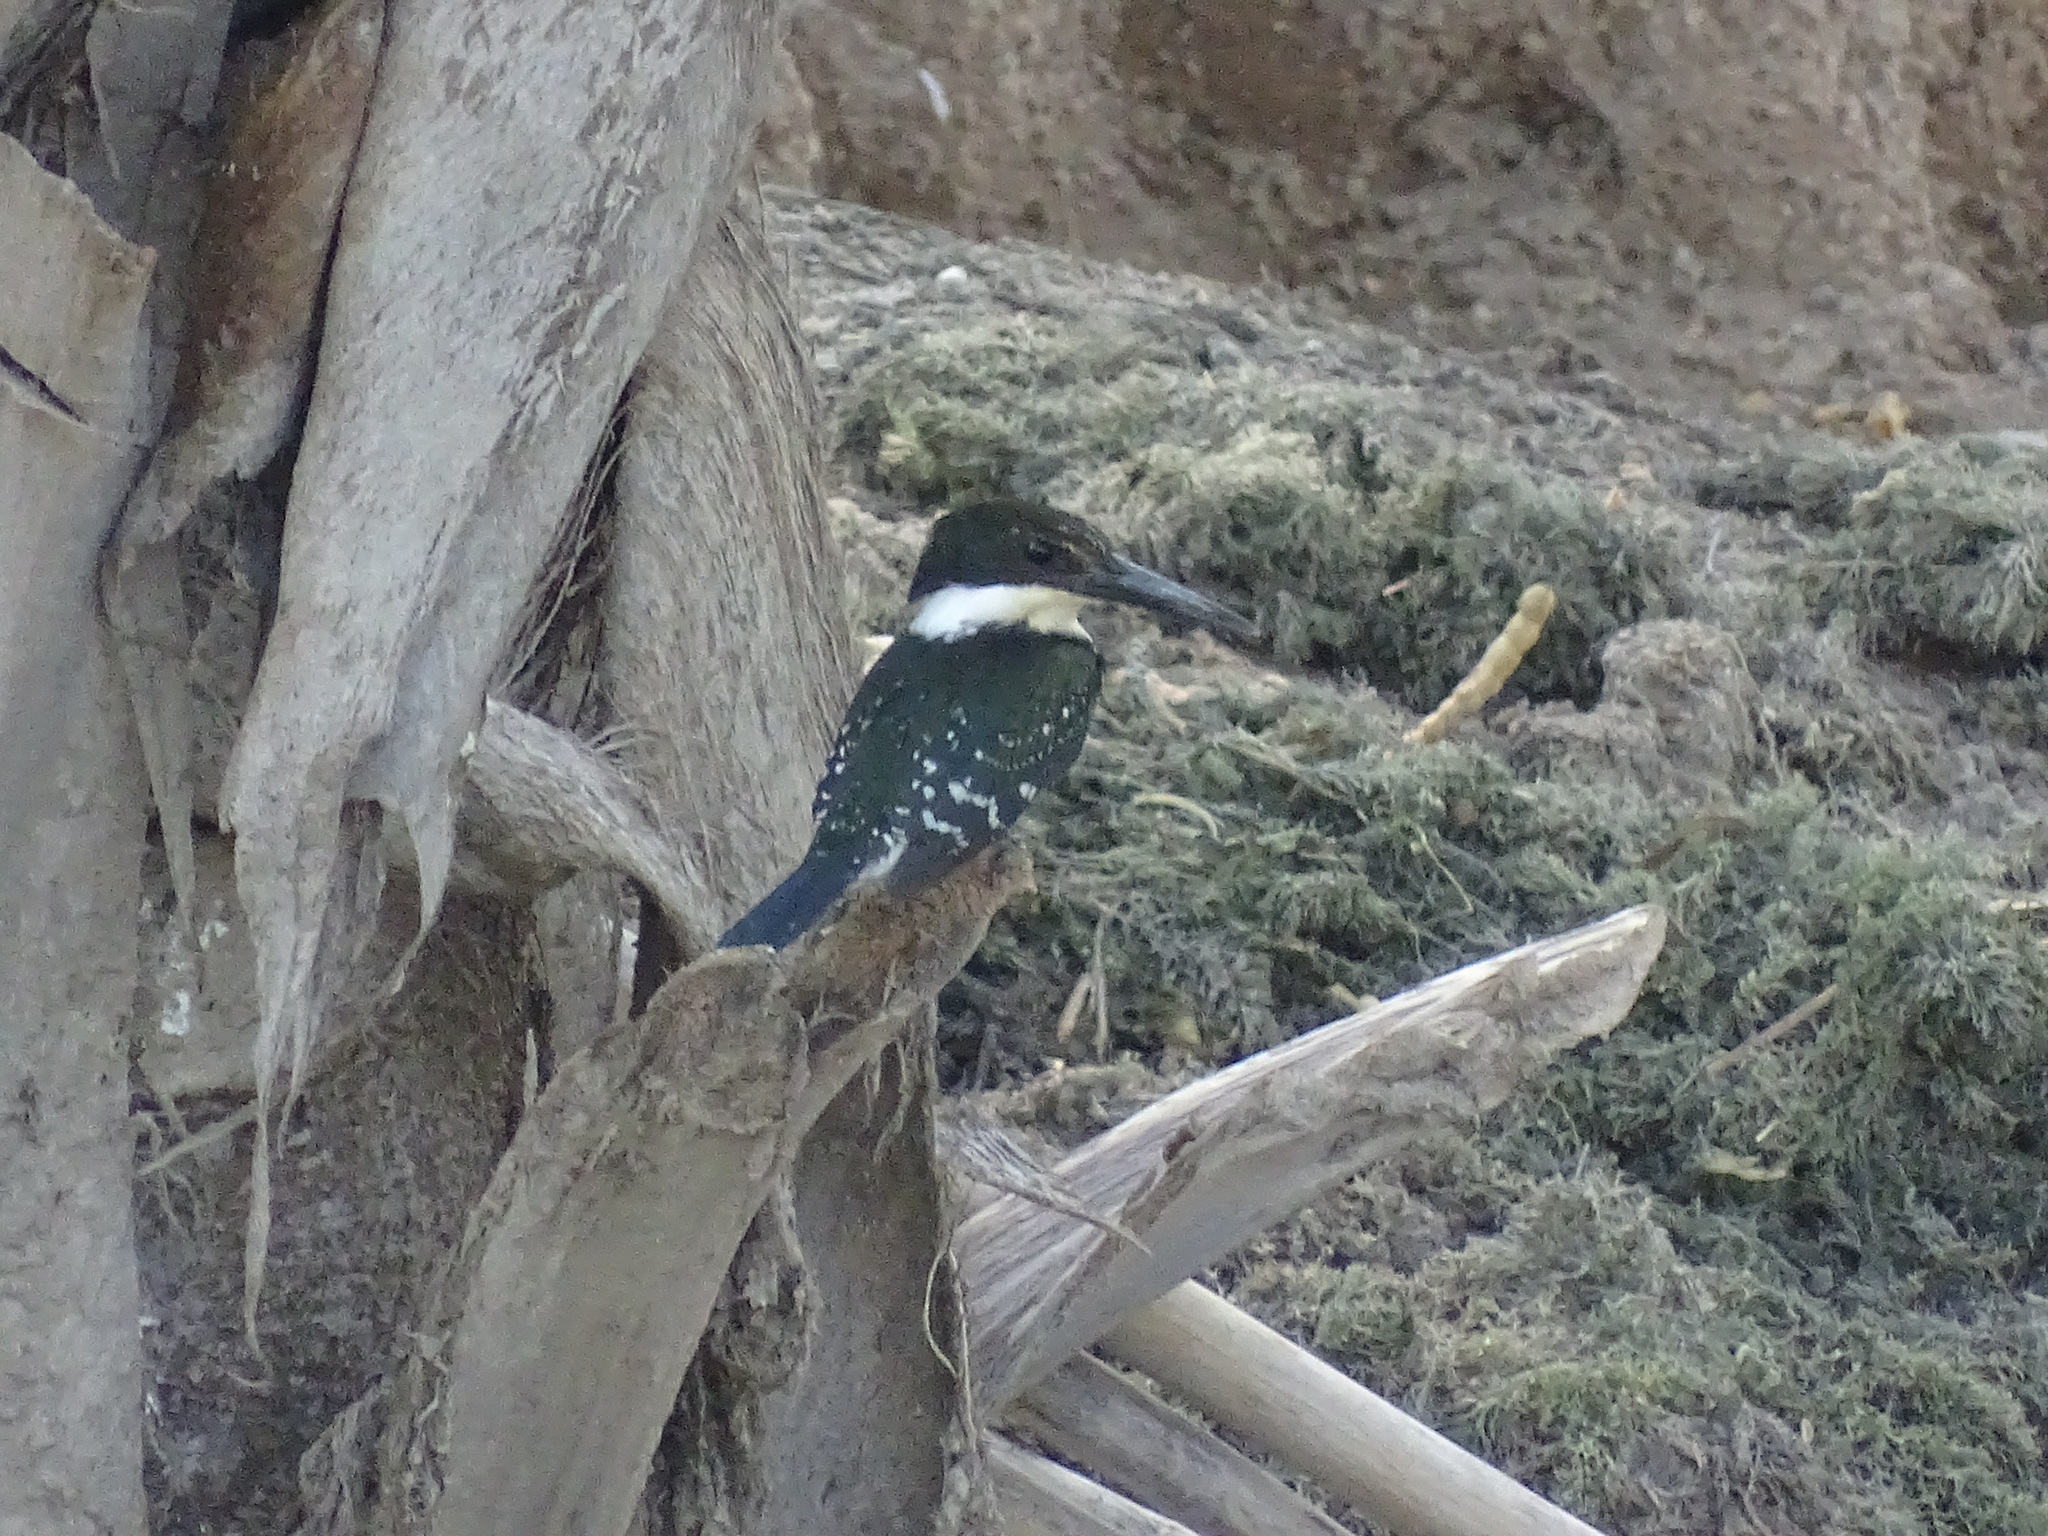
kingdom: Animalia
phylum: Chordata
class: Aves
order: Coraciiformes
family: Alcedinidae
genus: Chloroceryle
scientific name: Chloroceryle americana
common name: Green kingfisher
